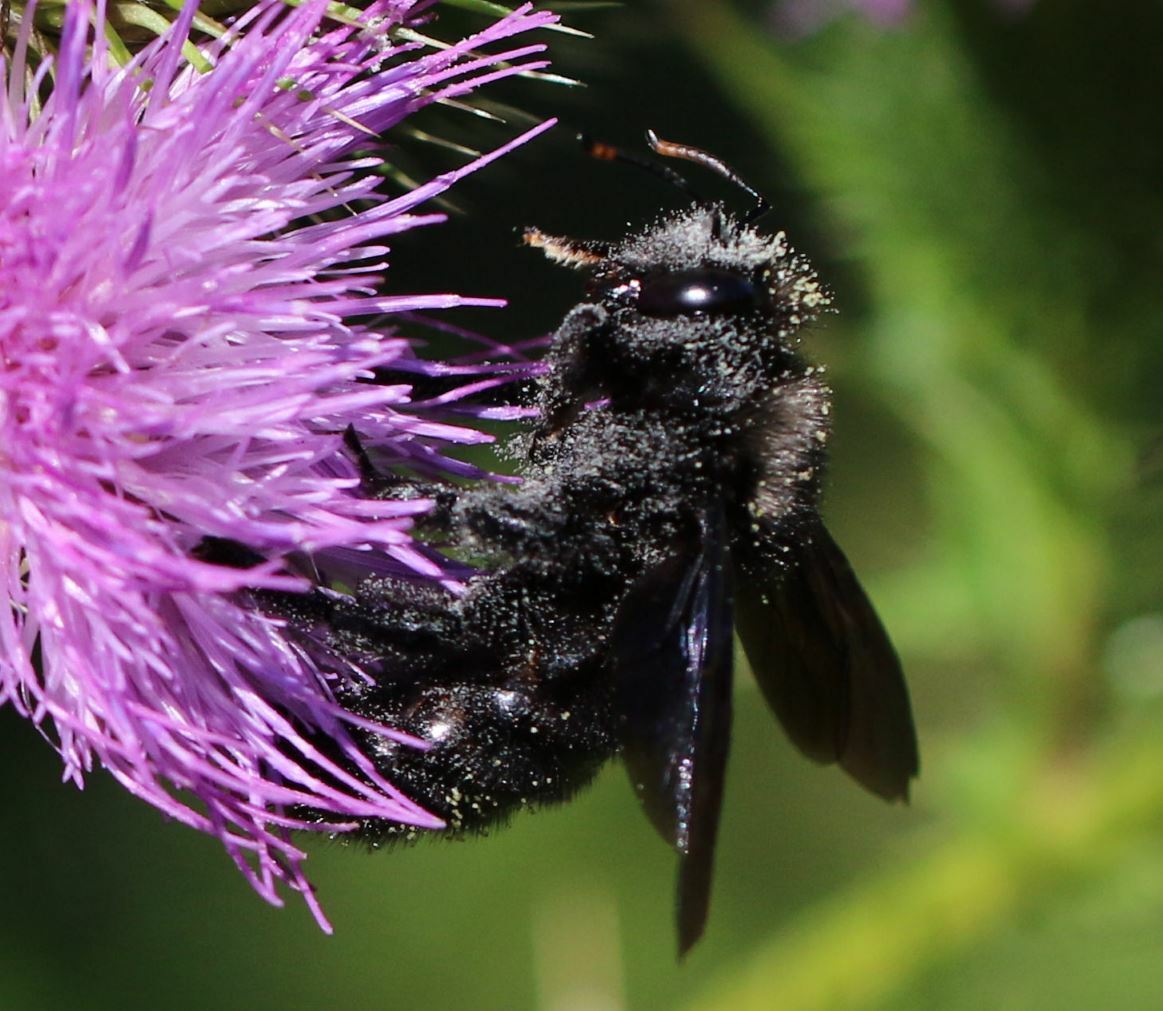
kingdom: Animalia
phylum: Arthropoda
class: Insecta
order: Hymenoptera
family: Apidae
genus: Xylocopa
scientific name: Xylocopa violacea
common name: Violet carpenter bee
